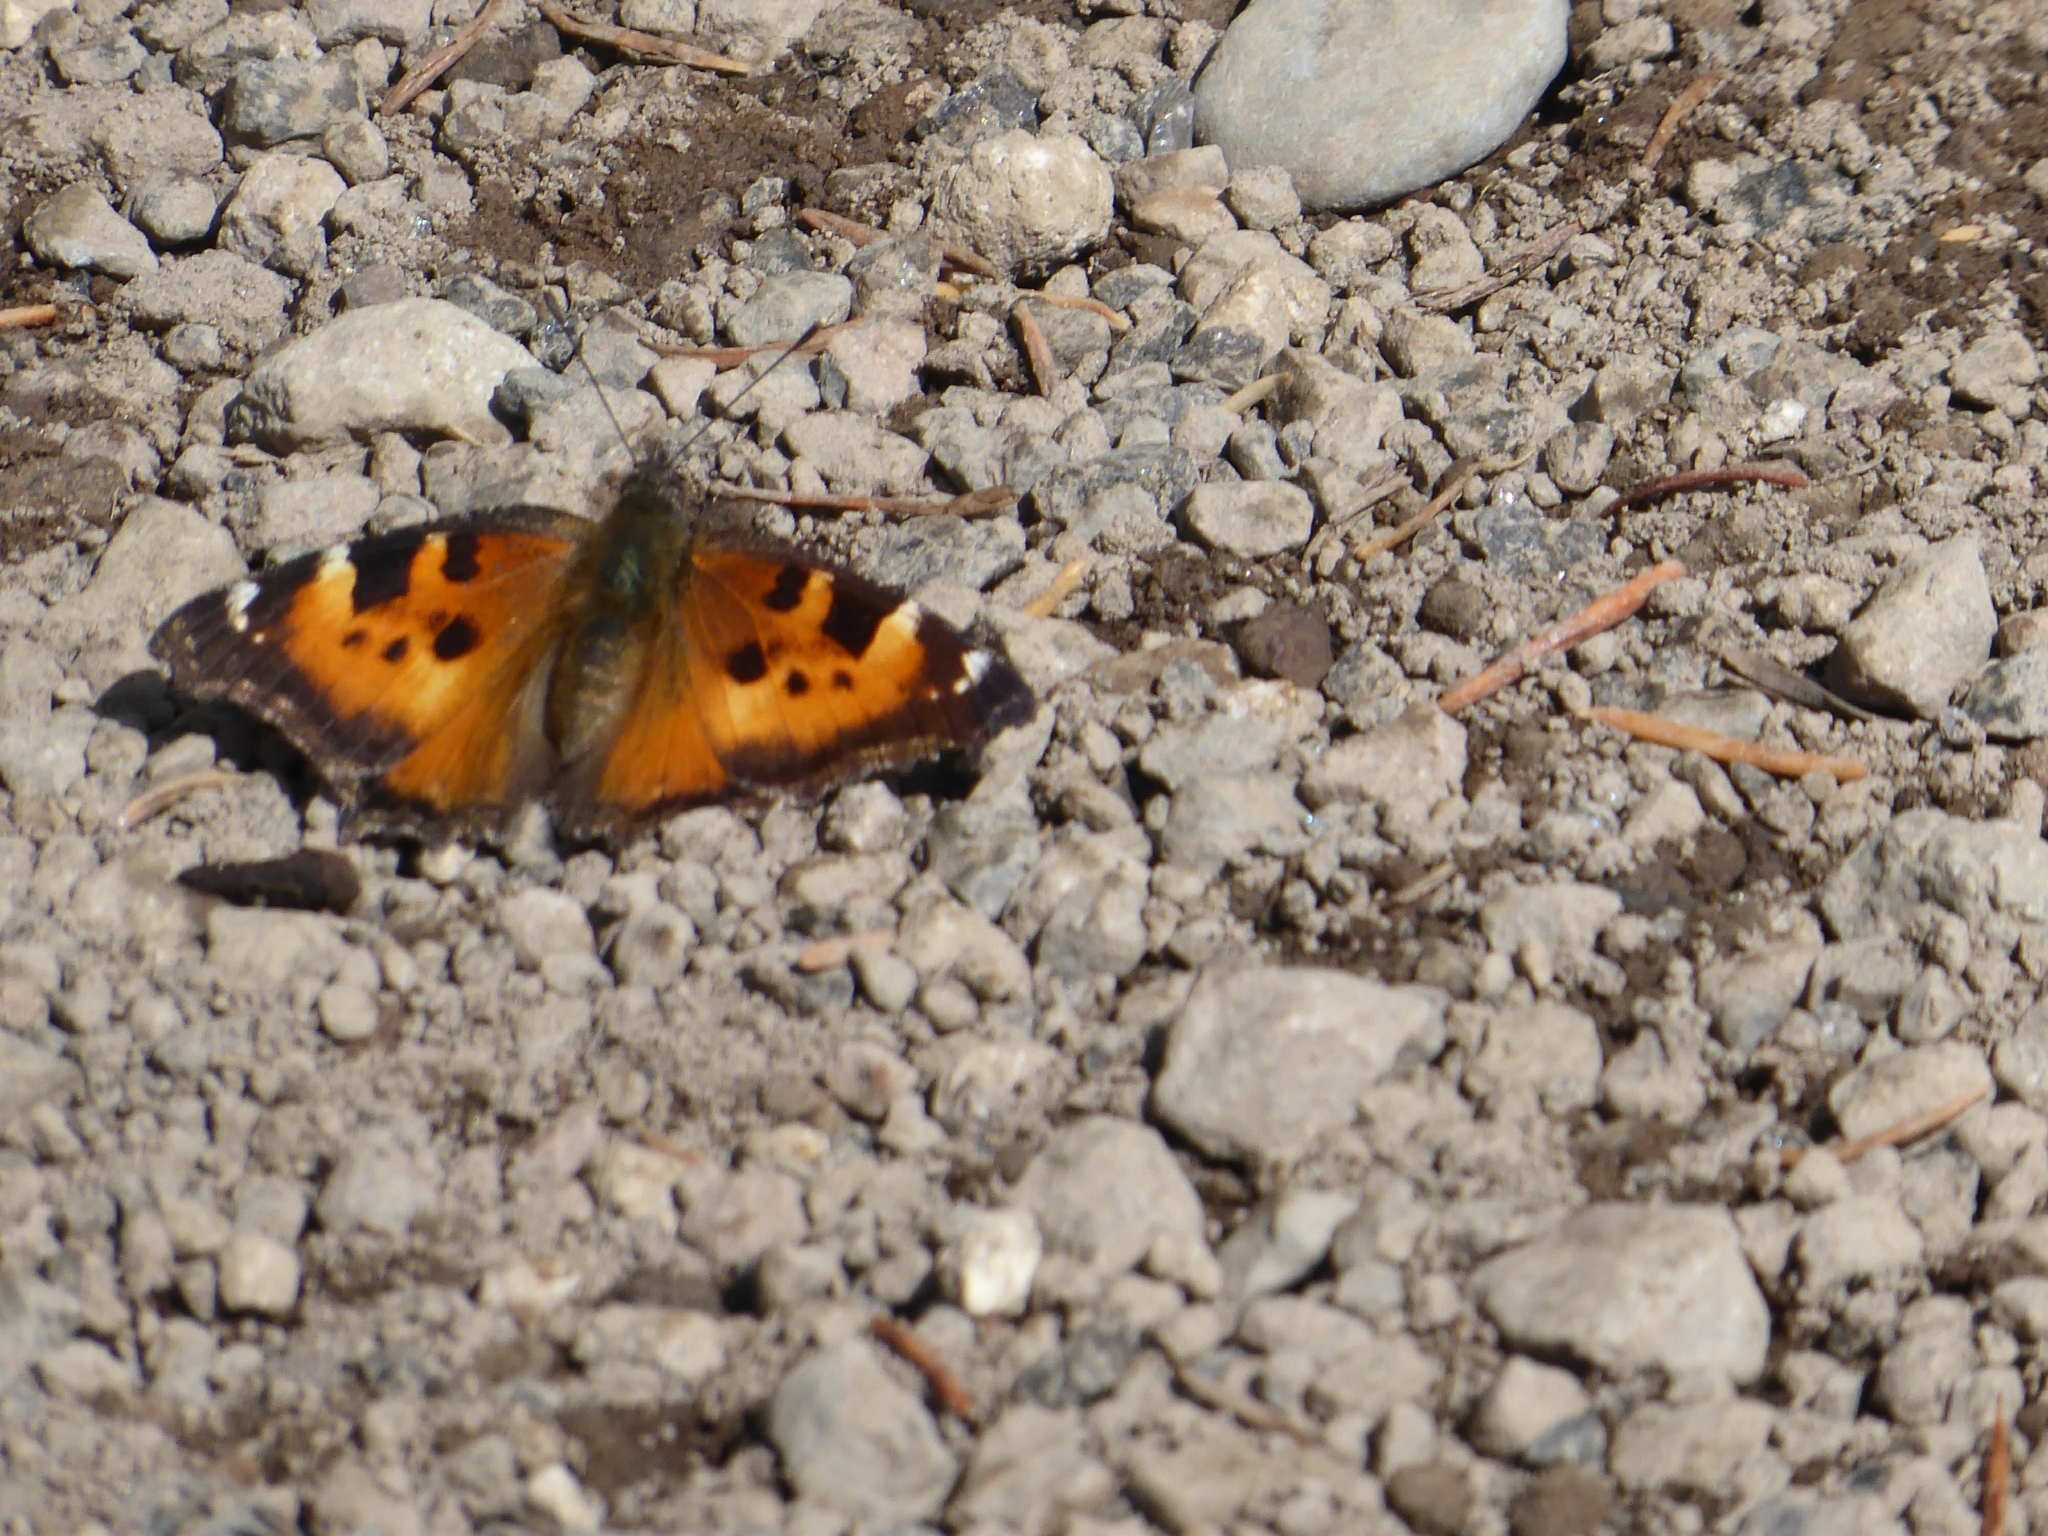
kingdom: Animalia
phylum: Arthropoda
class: Insecta
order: Lepidoptera
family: Nymphalidae
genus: Nymphalis
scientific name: Nymphalis californica
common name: California tortoiseshell
